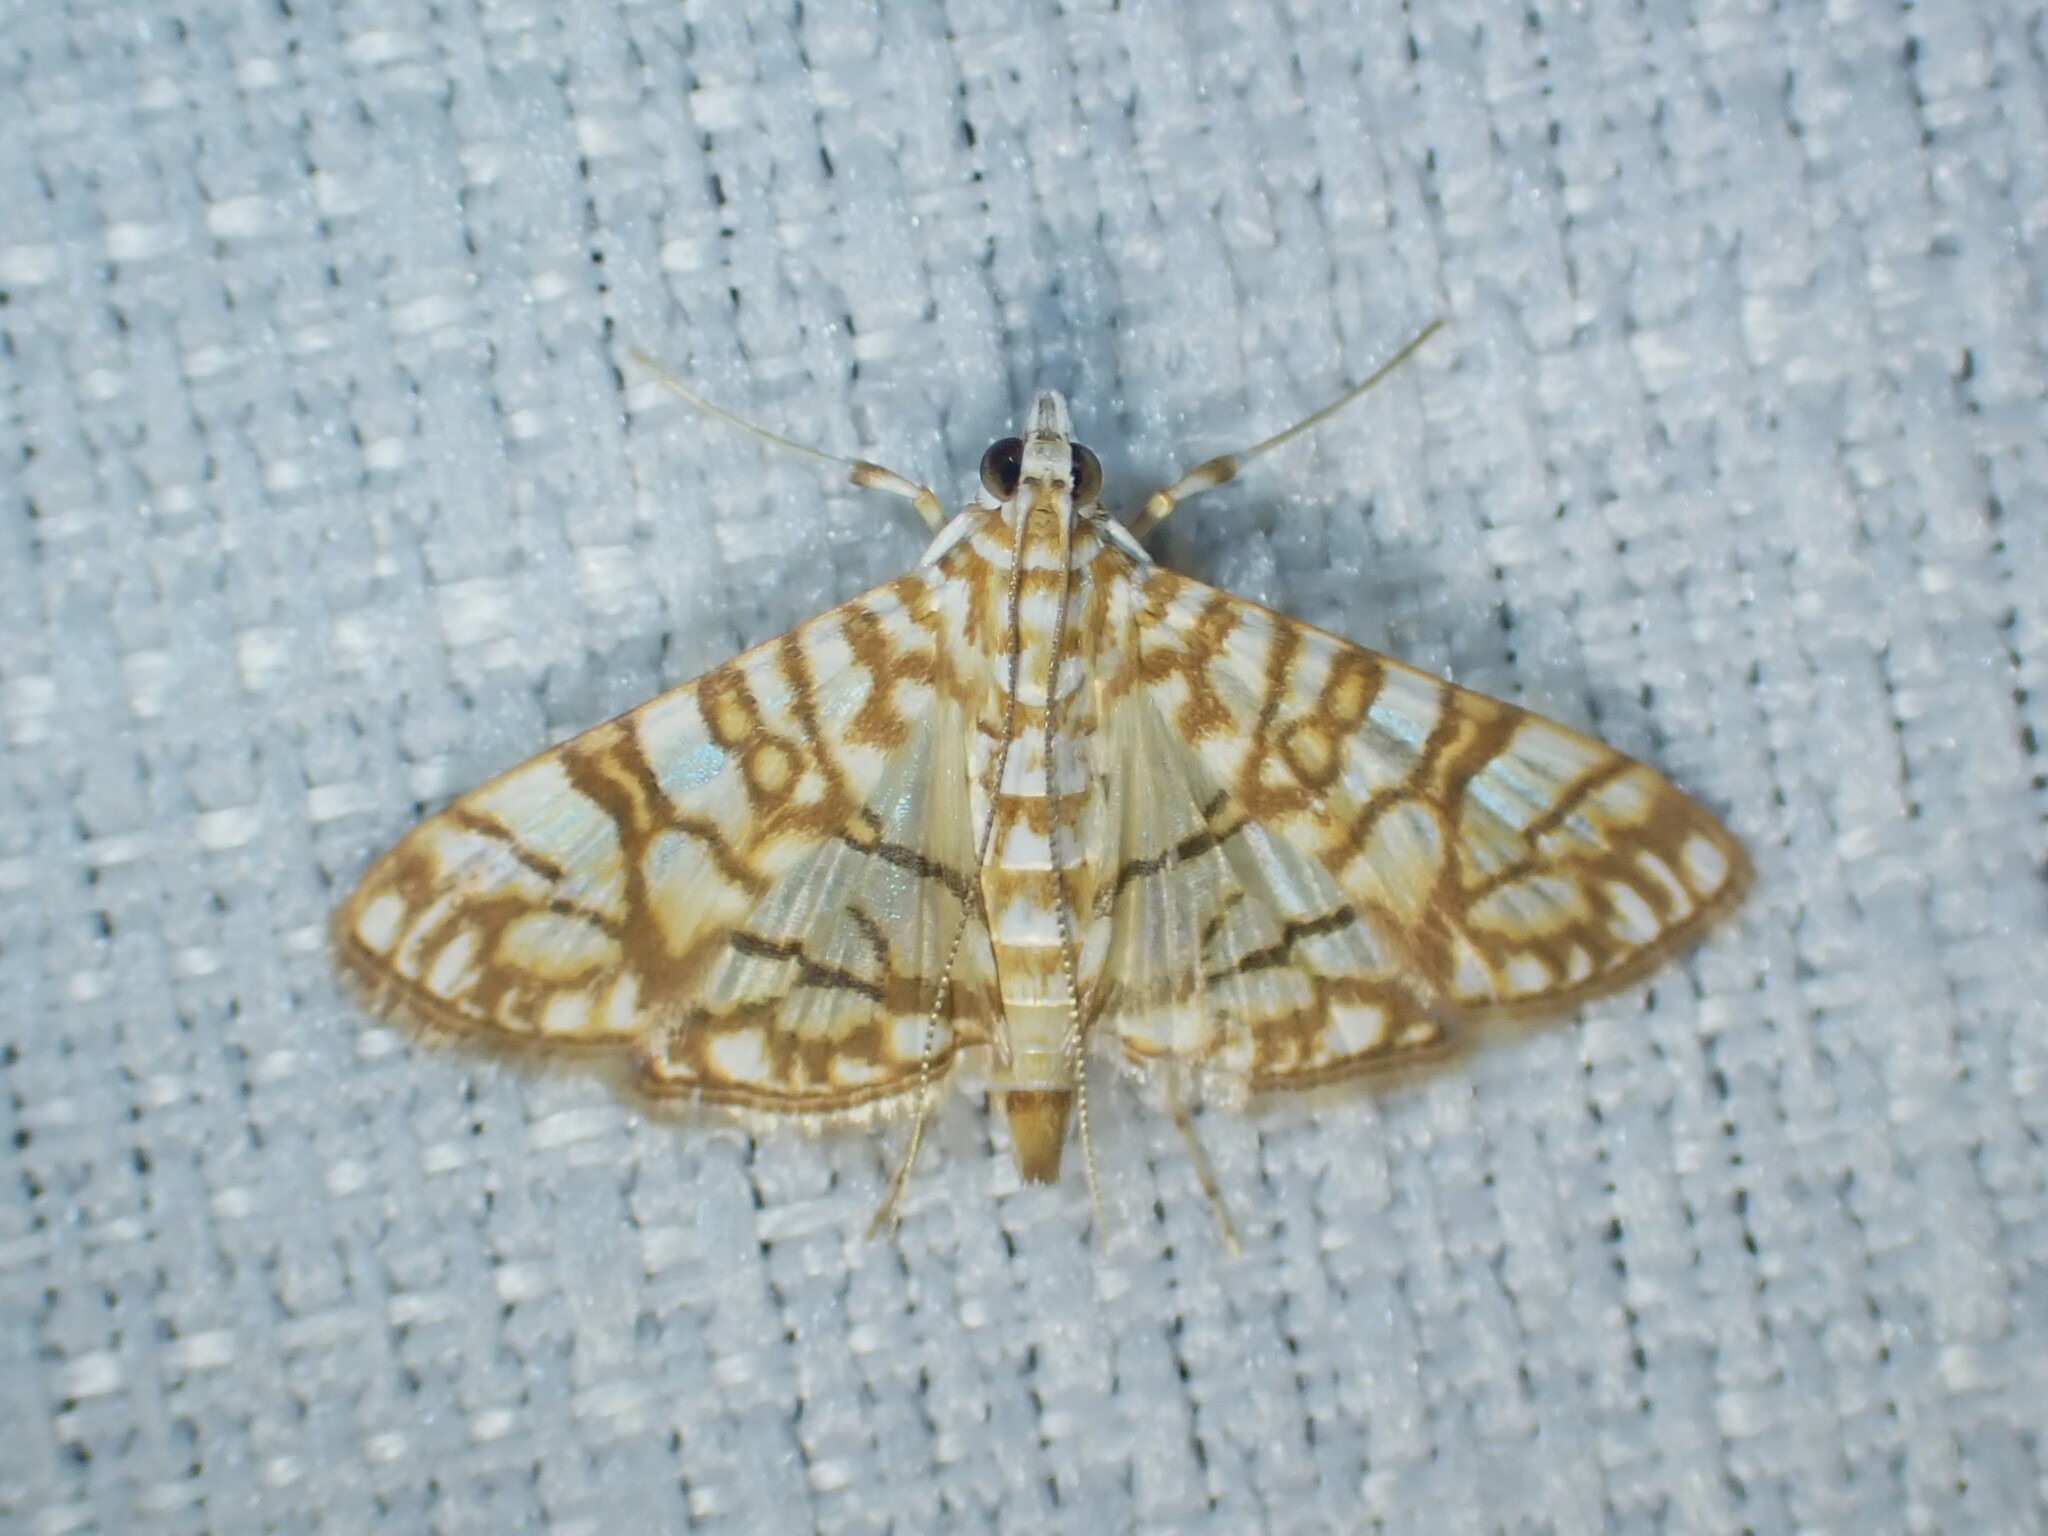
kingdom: Animalia
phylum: Arthropoda
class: Insecta
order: Lepidoptera
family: Crambidae
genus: Synclera
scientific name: Synclera traducalis
